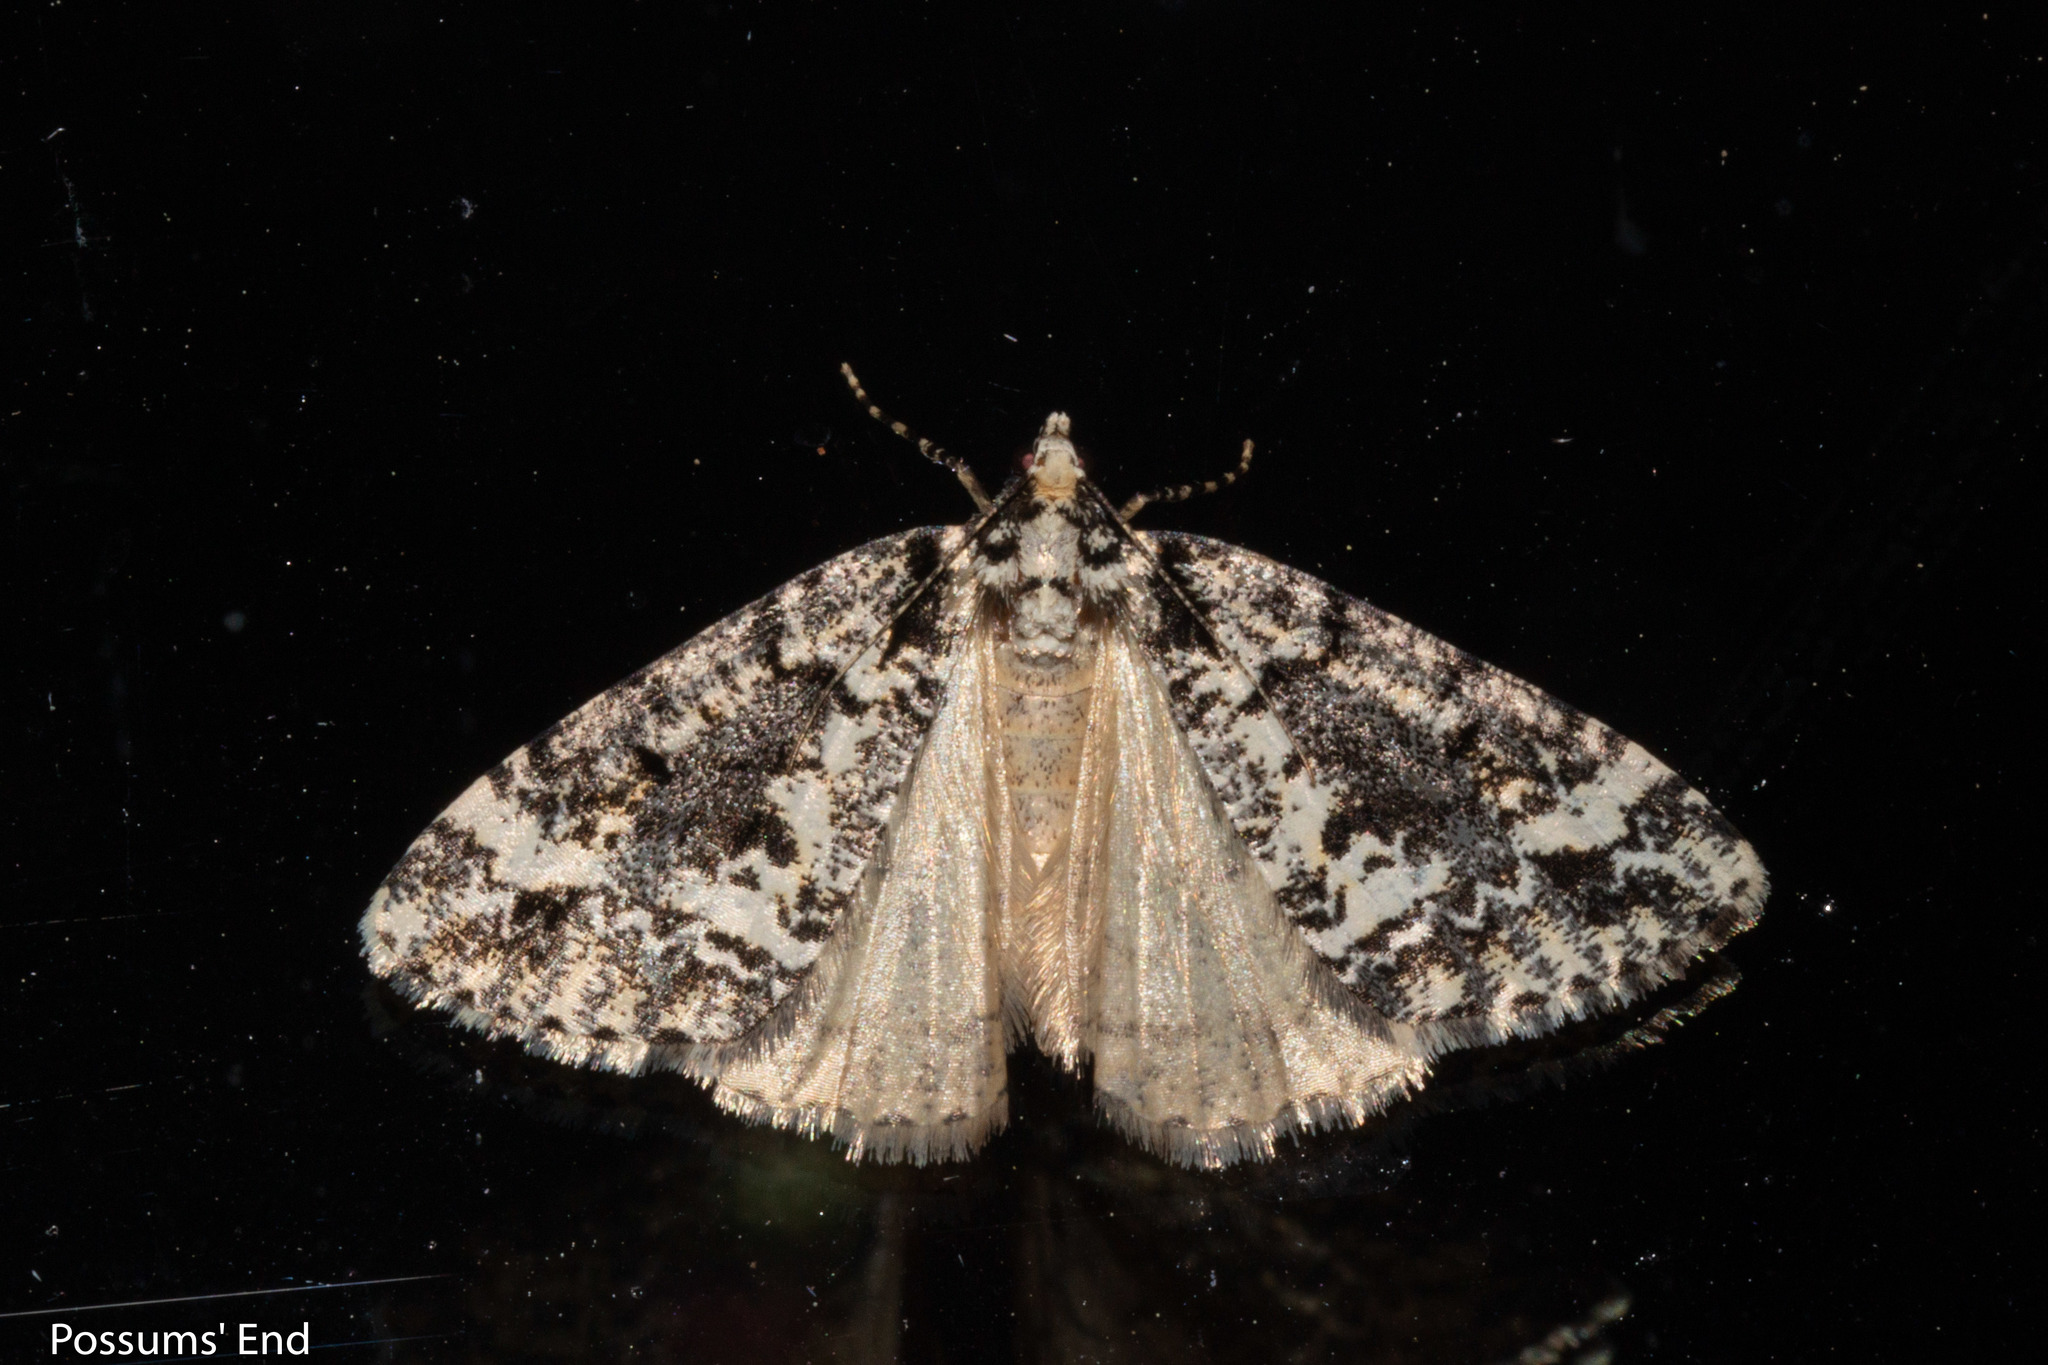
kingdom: Animalia
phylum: Arthropoda
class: Insecta
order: Lepidoptera
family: Geometridae
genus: Pseudocoremia
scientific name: Pseudocoremia leucelaea
